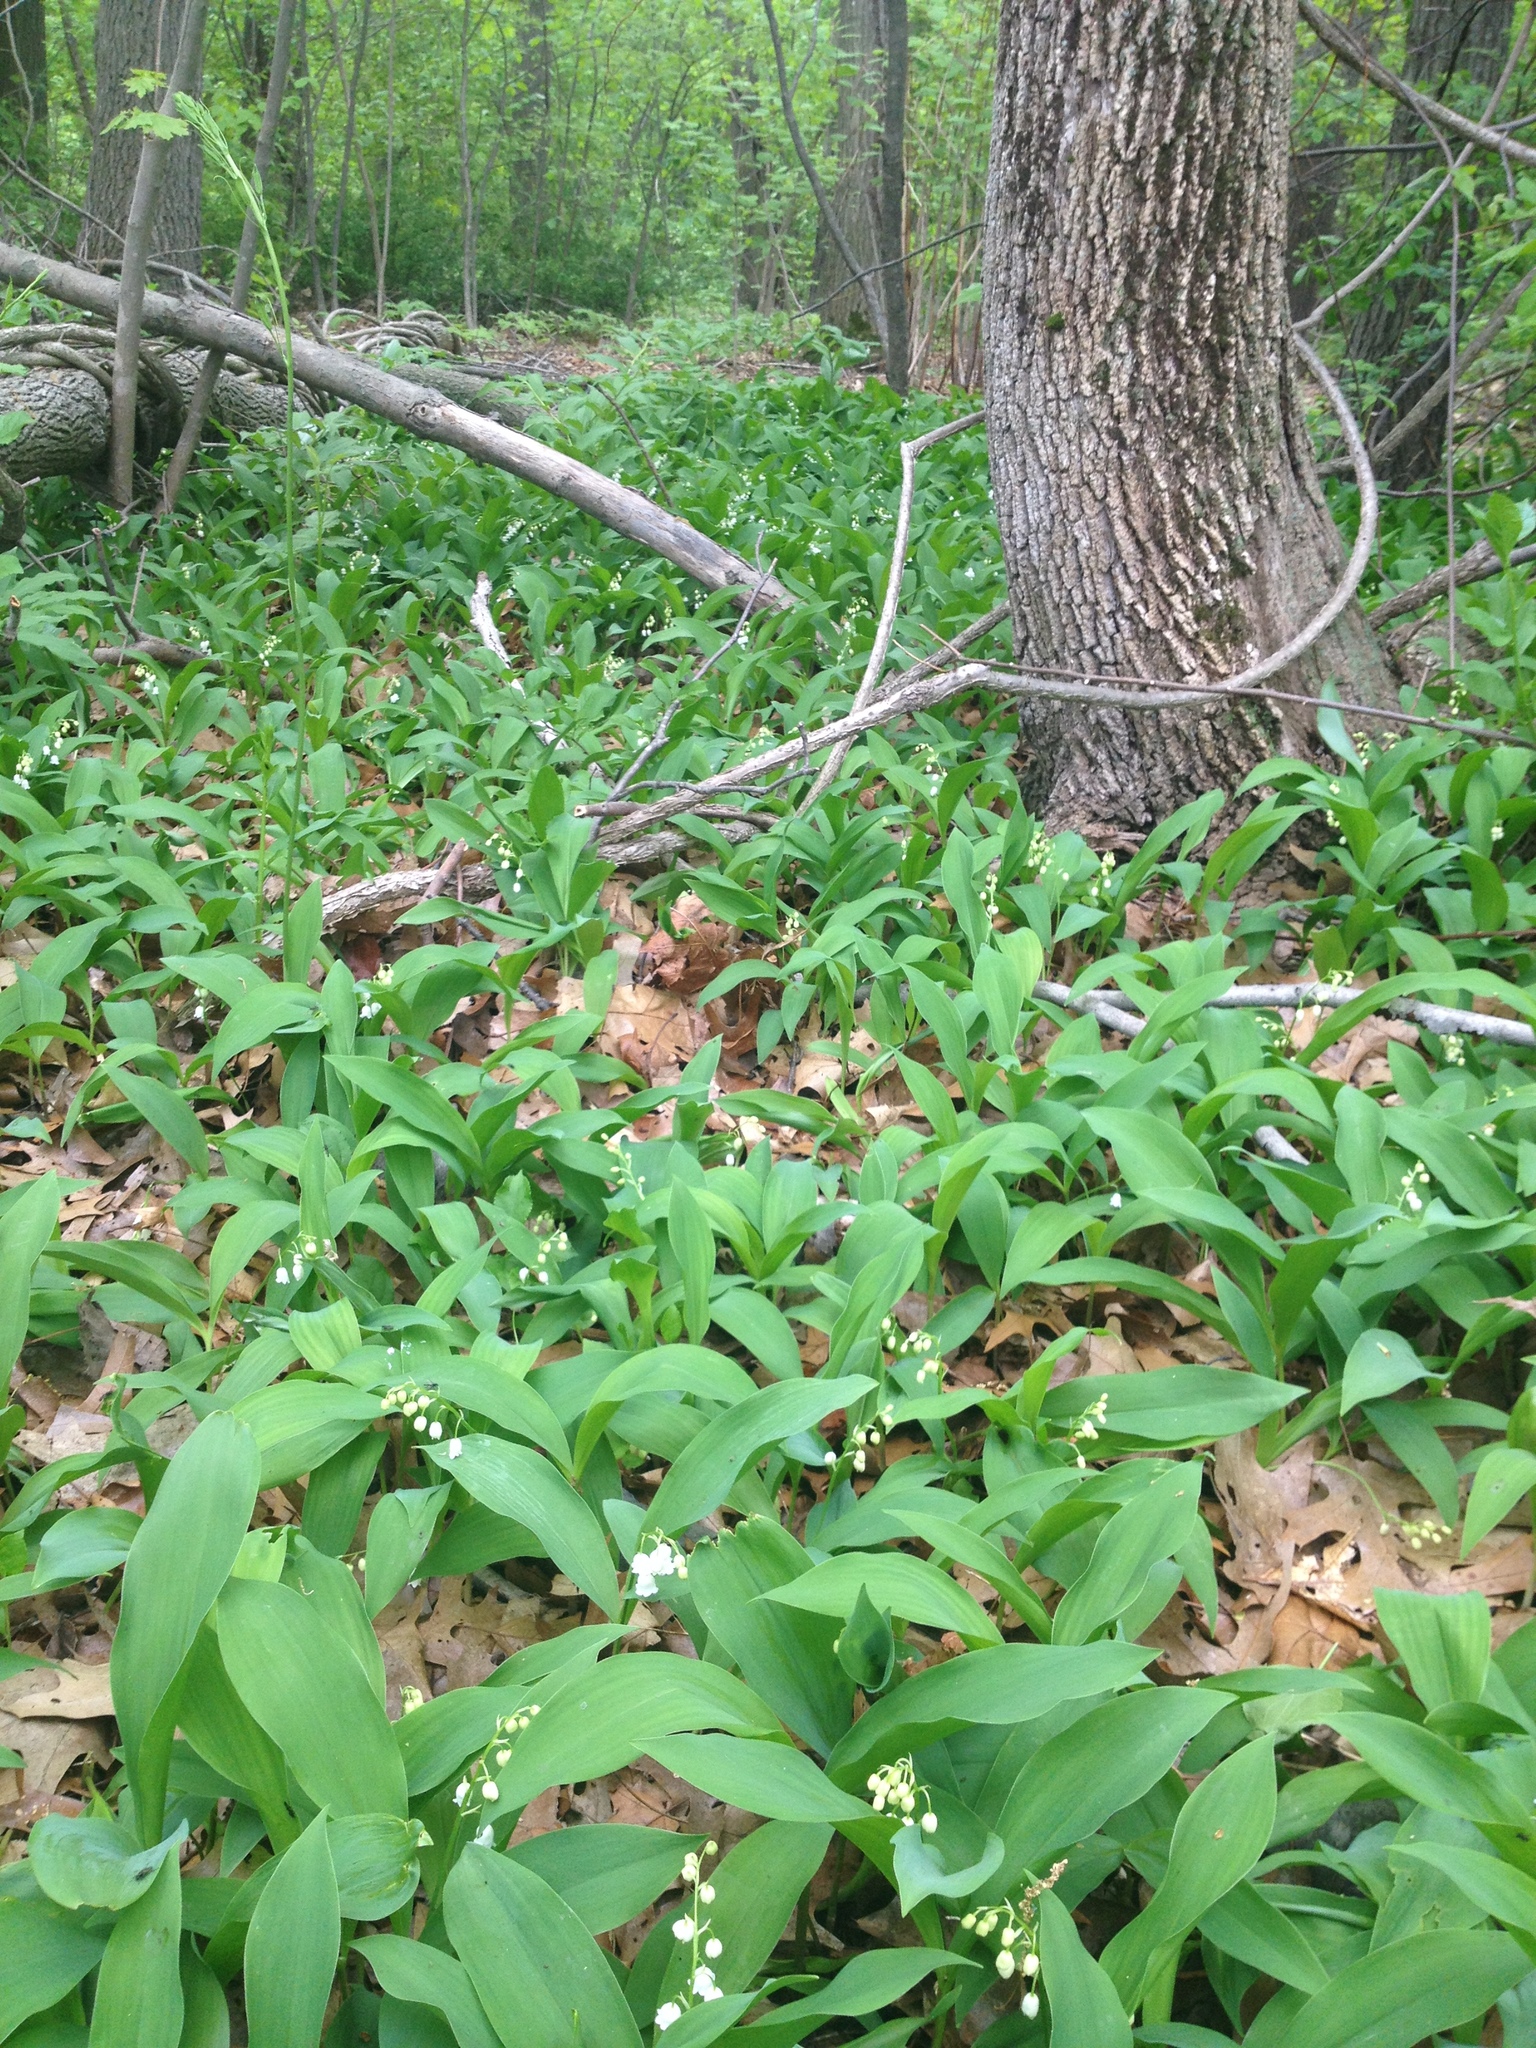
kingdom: Plantae
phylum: Tracheophyta
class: Liliopsida
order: Asparagales
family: Asparagaceae
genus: Convallaria
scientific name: Convallaria majalis
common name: Lily-of-the-valley
